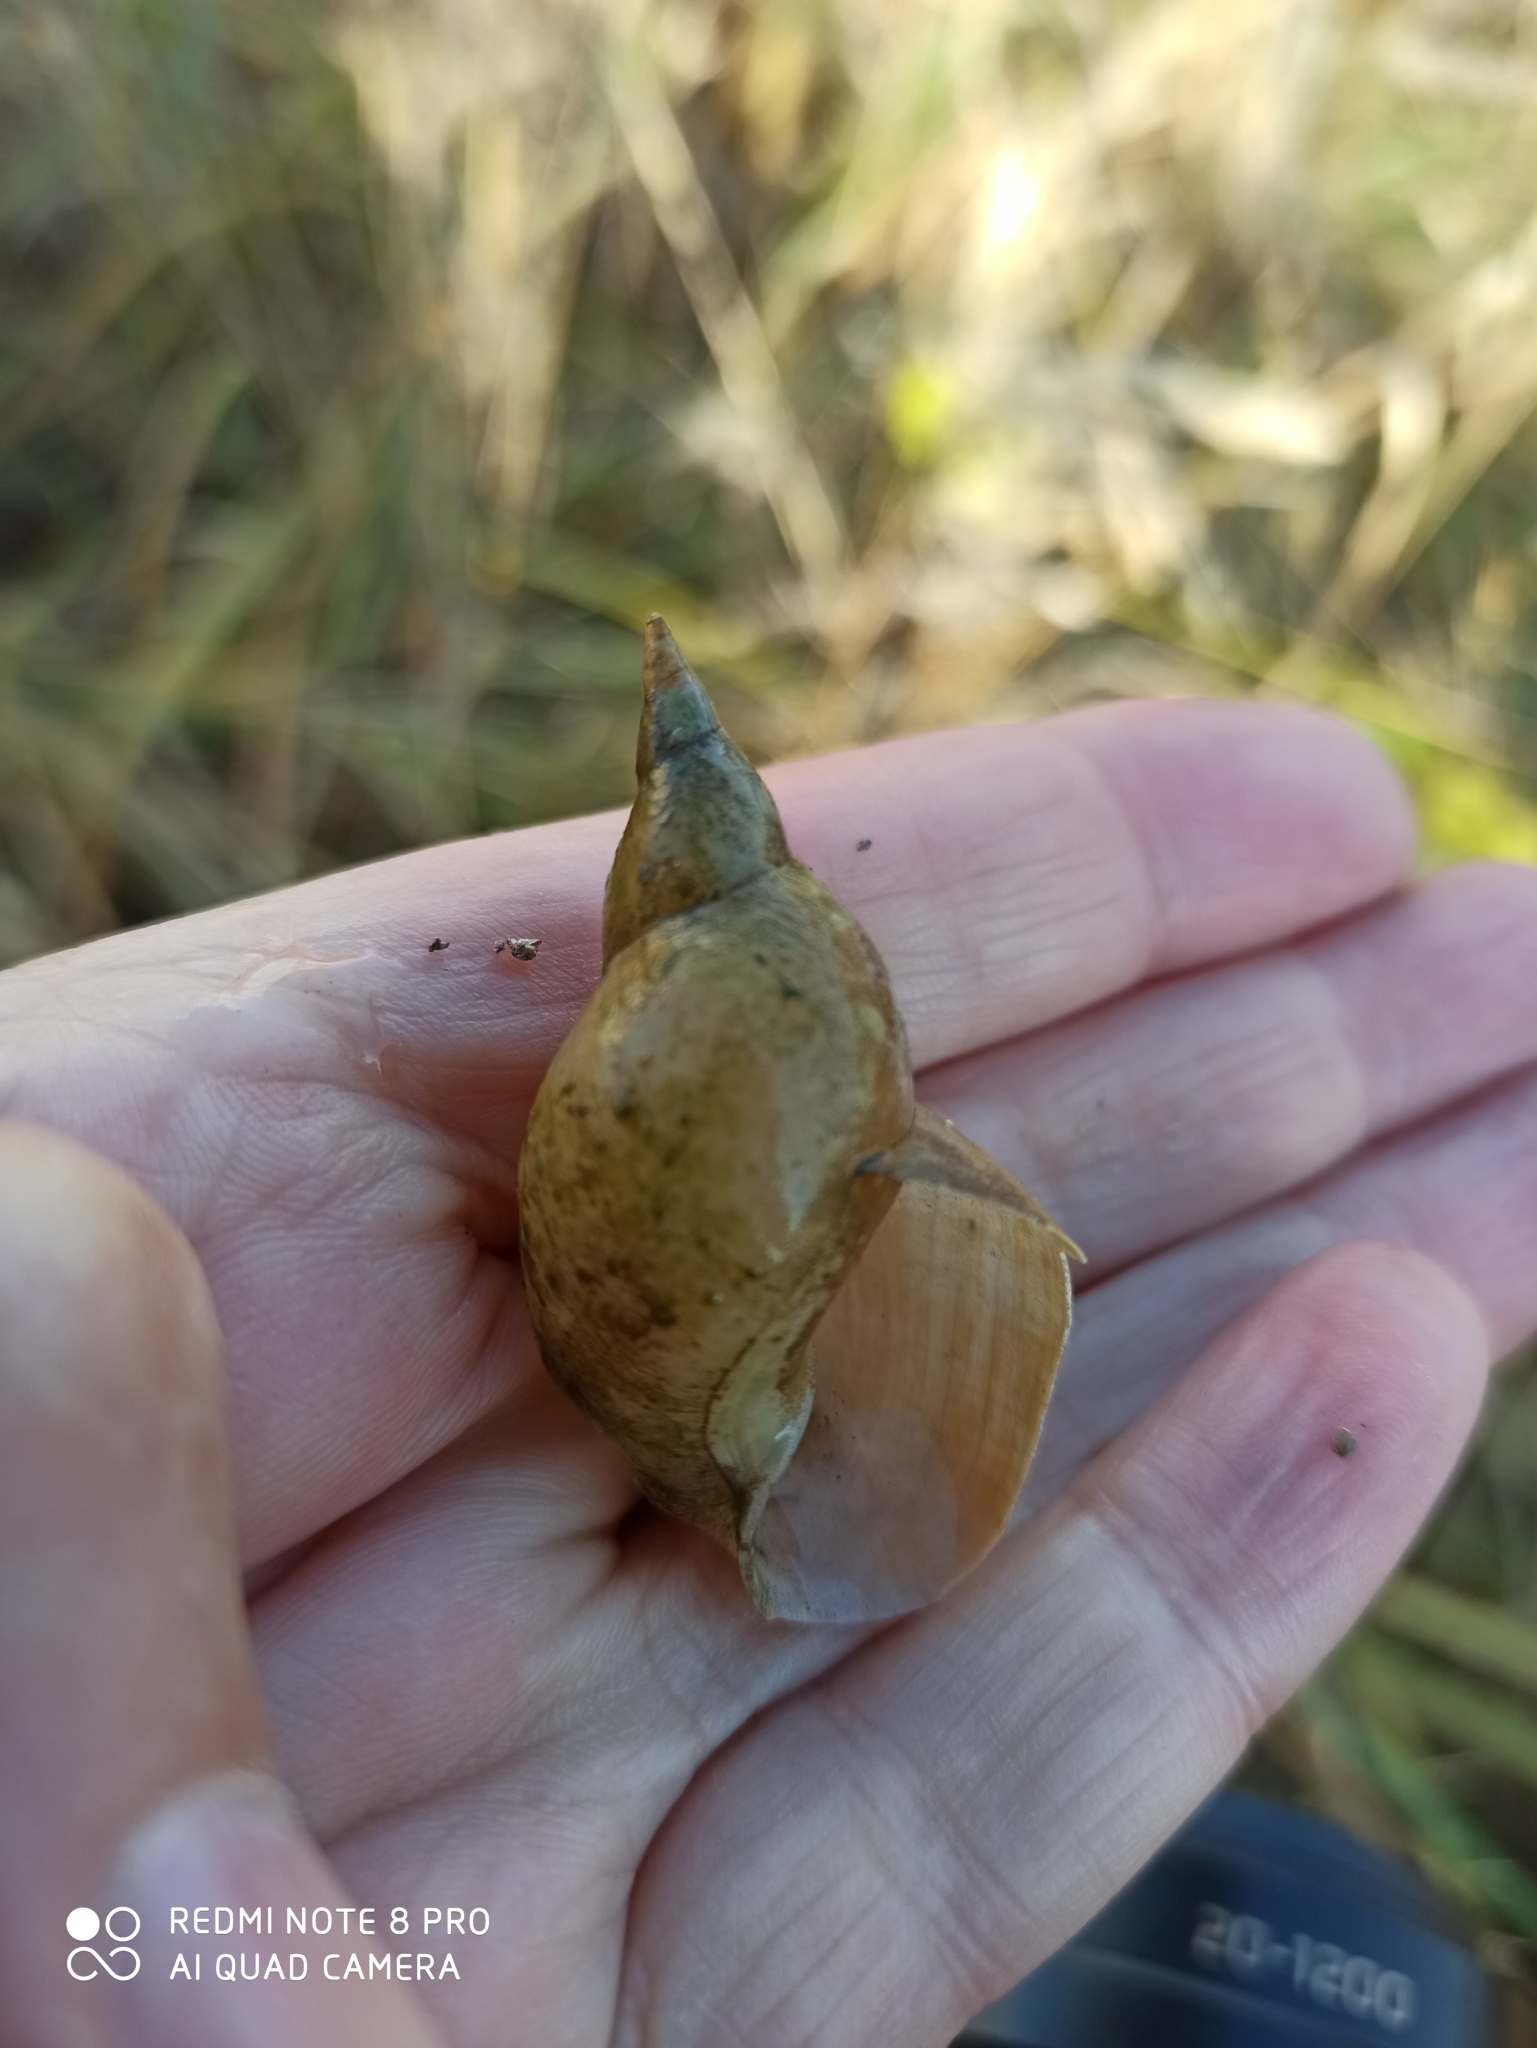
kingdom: Animalia
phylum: Mollusca
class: Gastropoda
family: Lymnaeidae
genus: Lymnaea
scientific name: Lymnaea stagnalis
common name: Great pond snail
